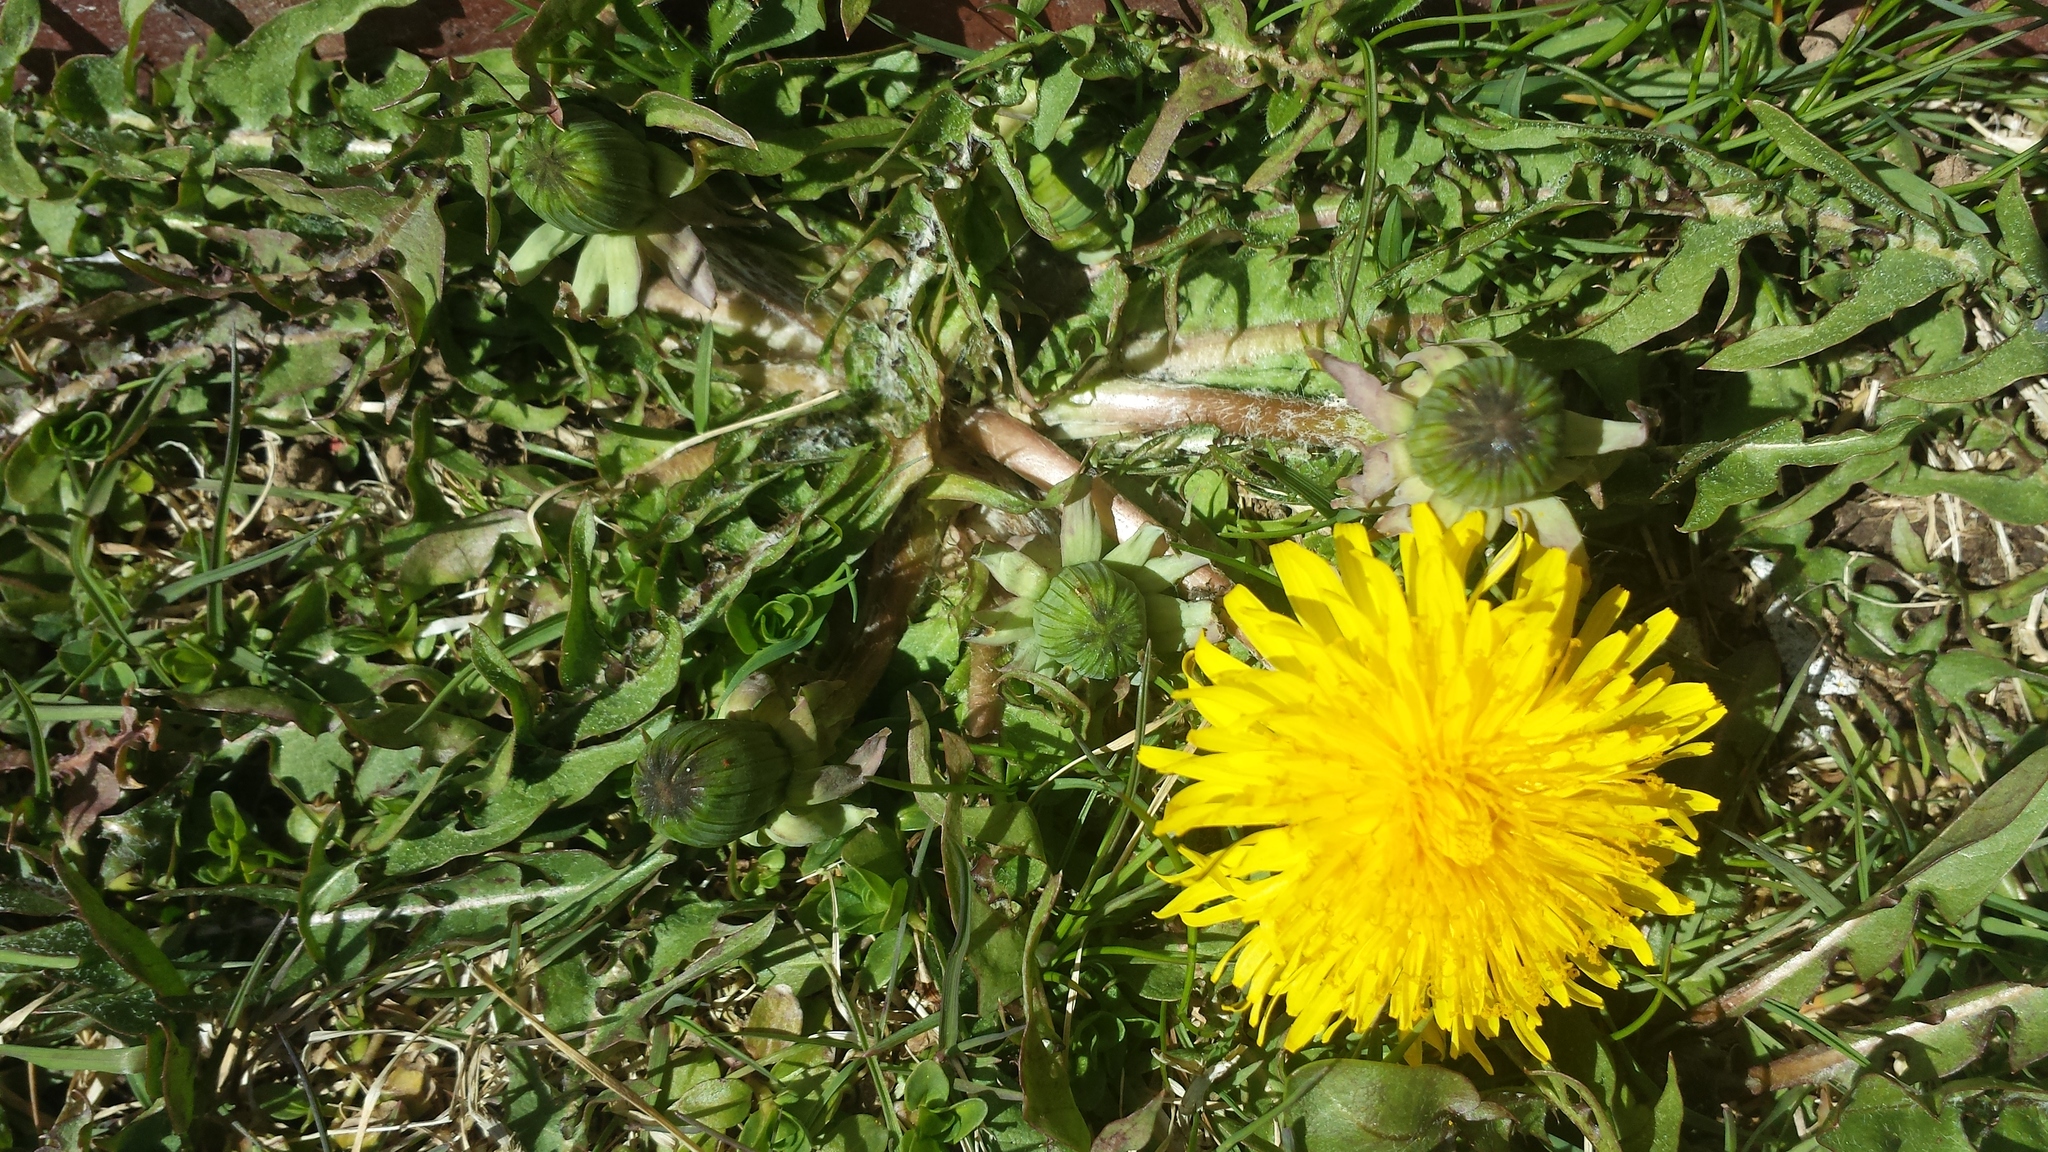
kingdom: Plantae
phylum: Tracheophyta
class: Magnoliopsida
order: Asterales
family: Asteraceae
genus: Taraxacum
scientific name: Taraxacum officinale
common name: Common dandelion
